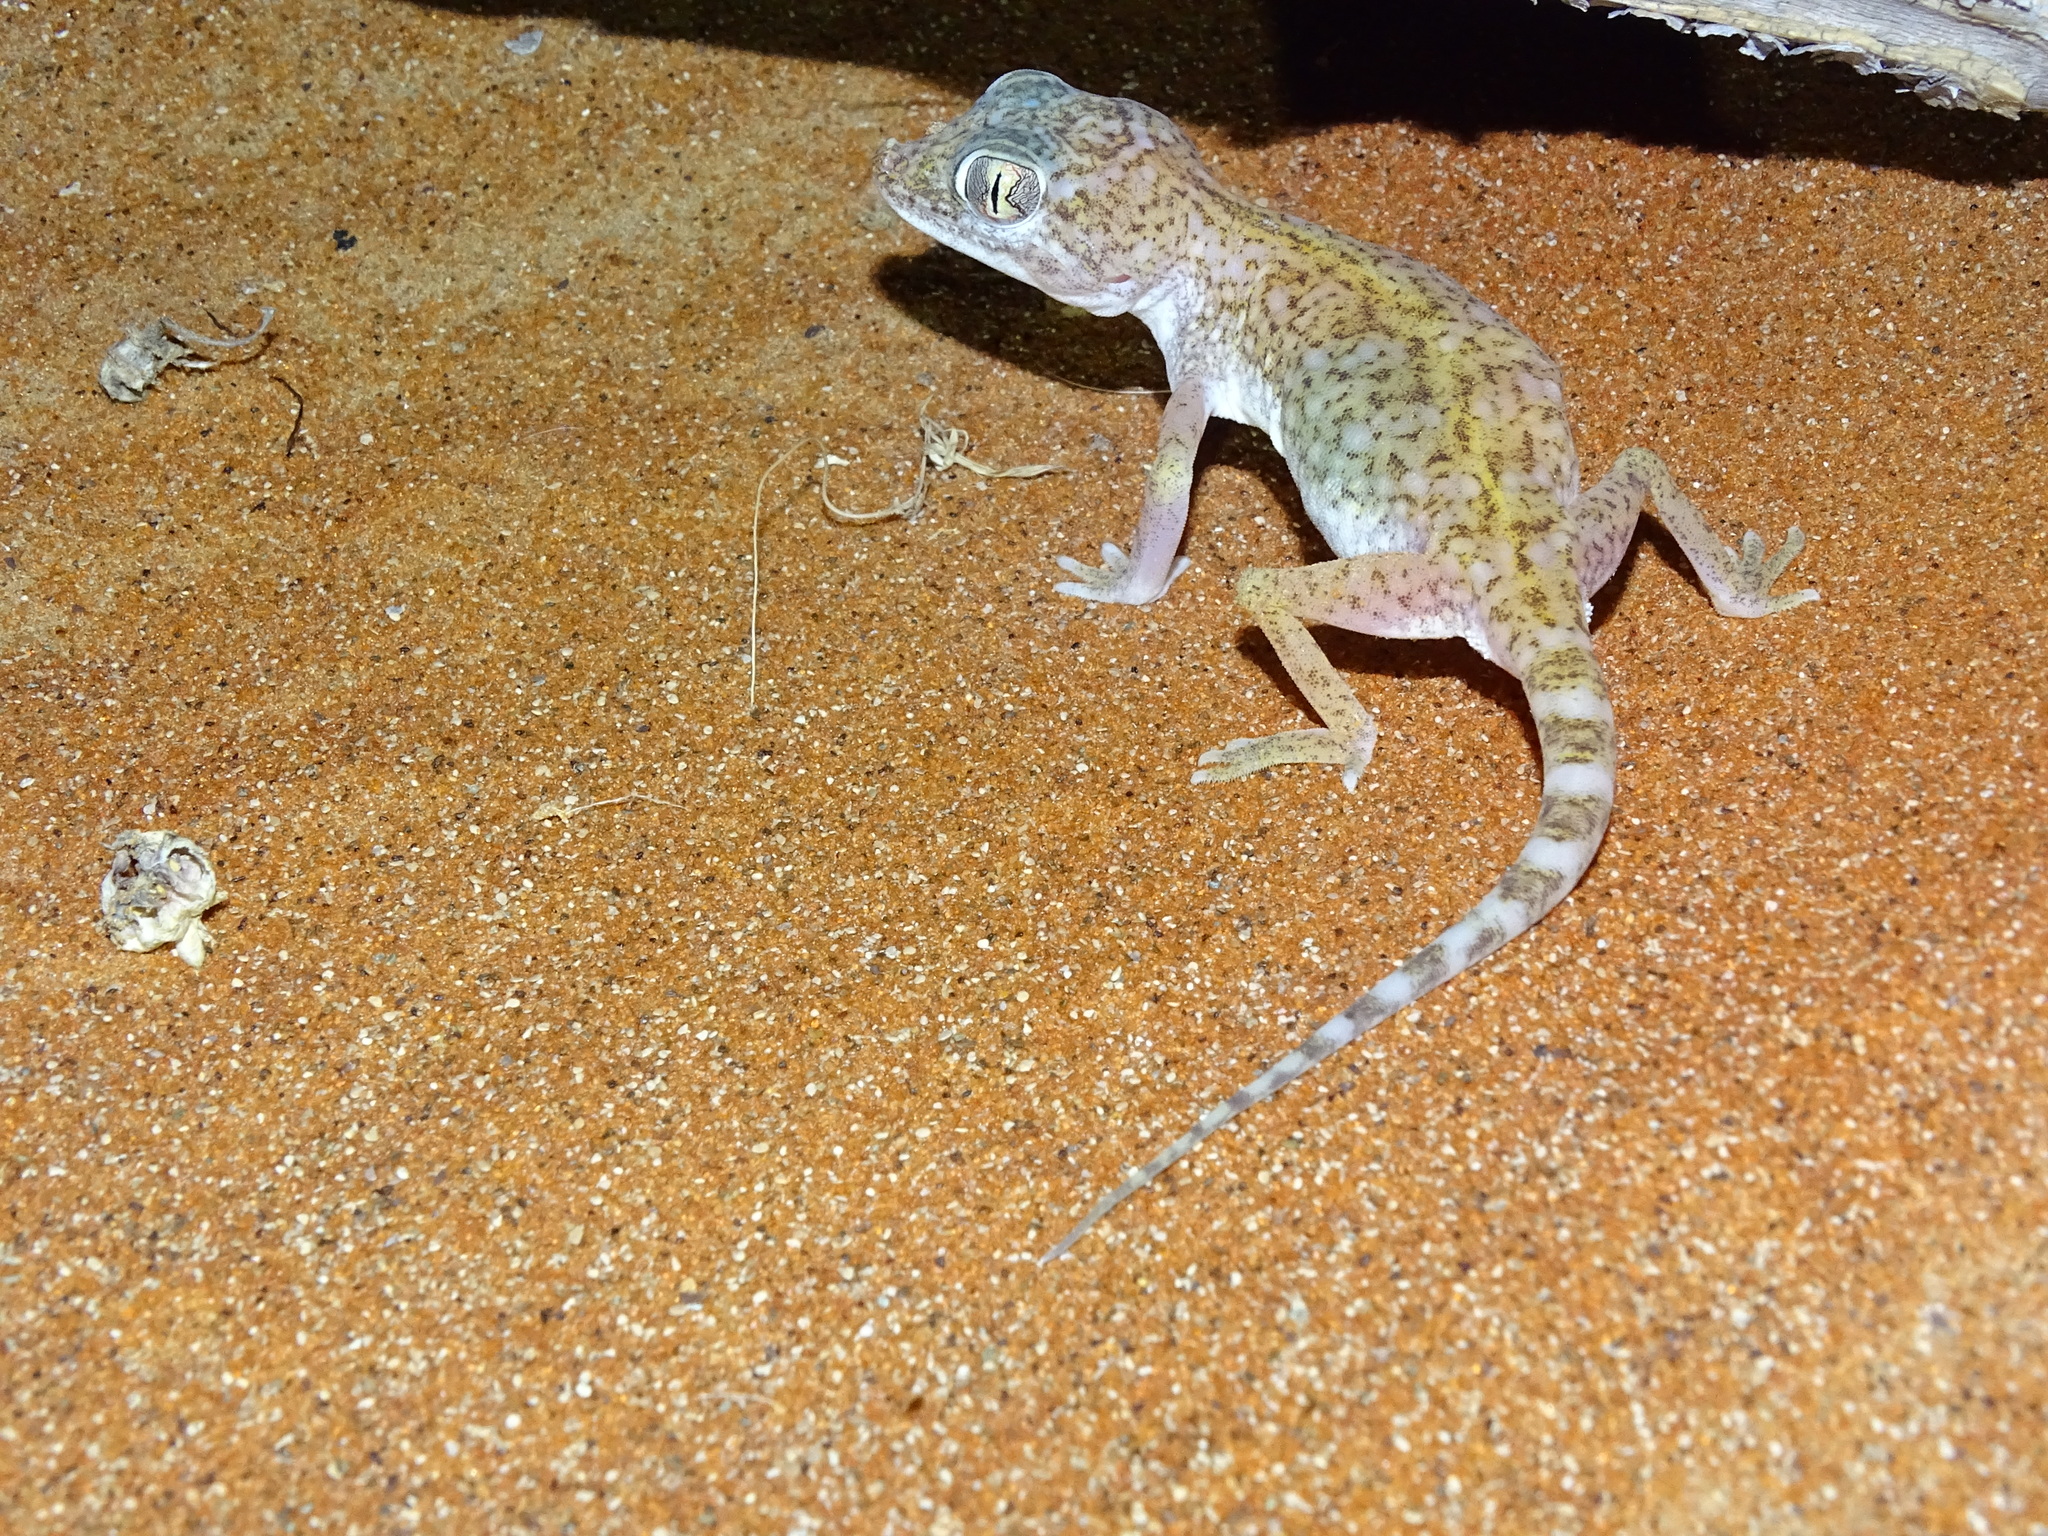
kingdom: Animalia
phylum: Chordata
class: Squamata
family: Gekkonidae
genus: Stenodactylus
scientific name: Stenodactylus doriae
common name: Dune sand gecko
